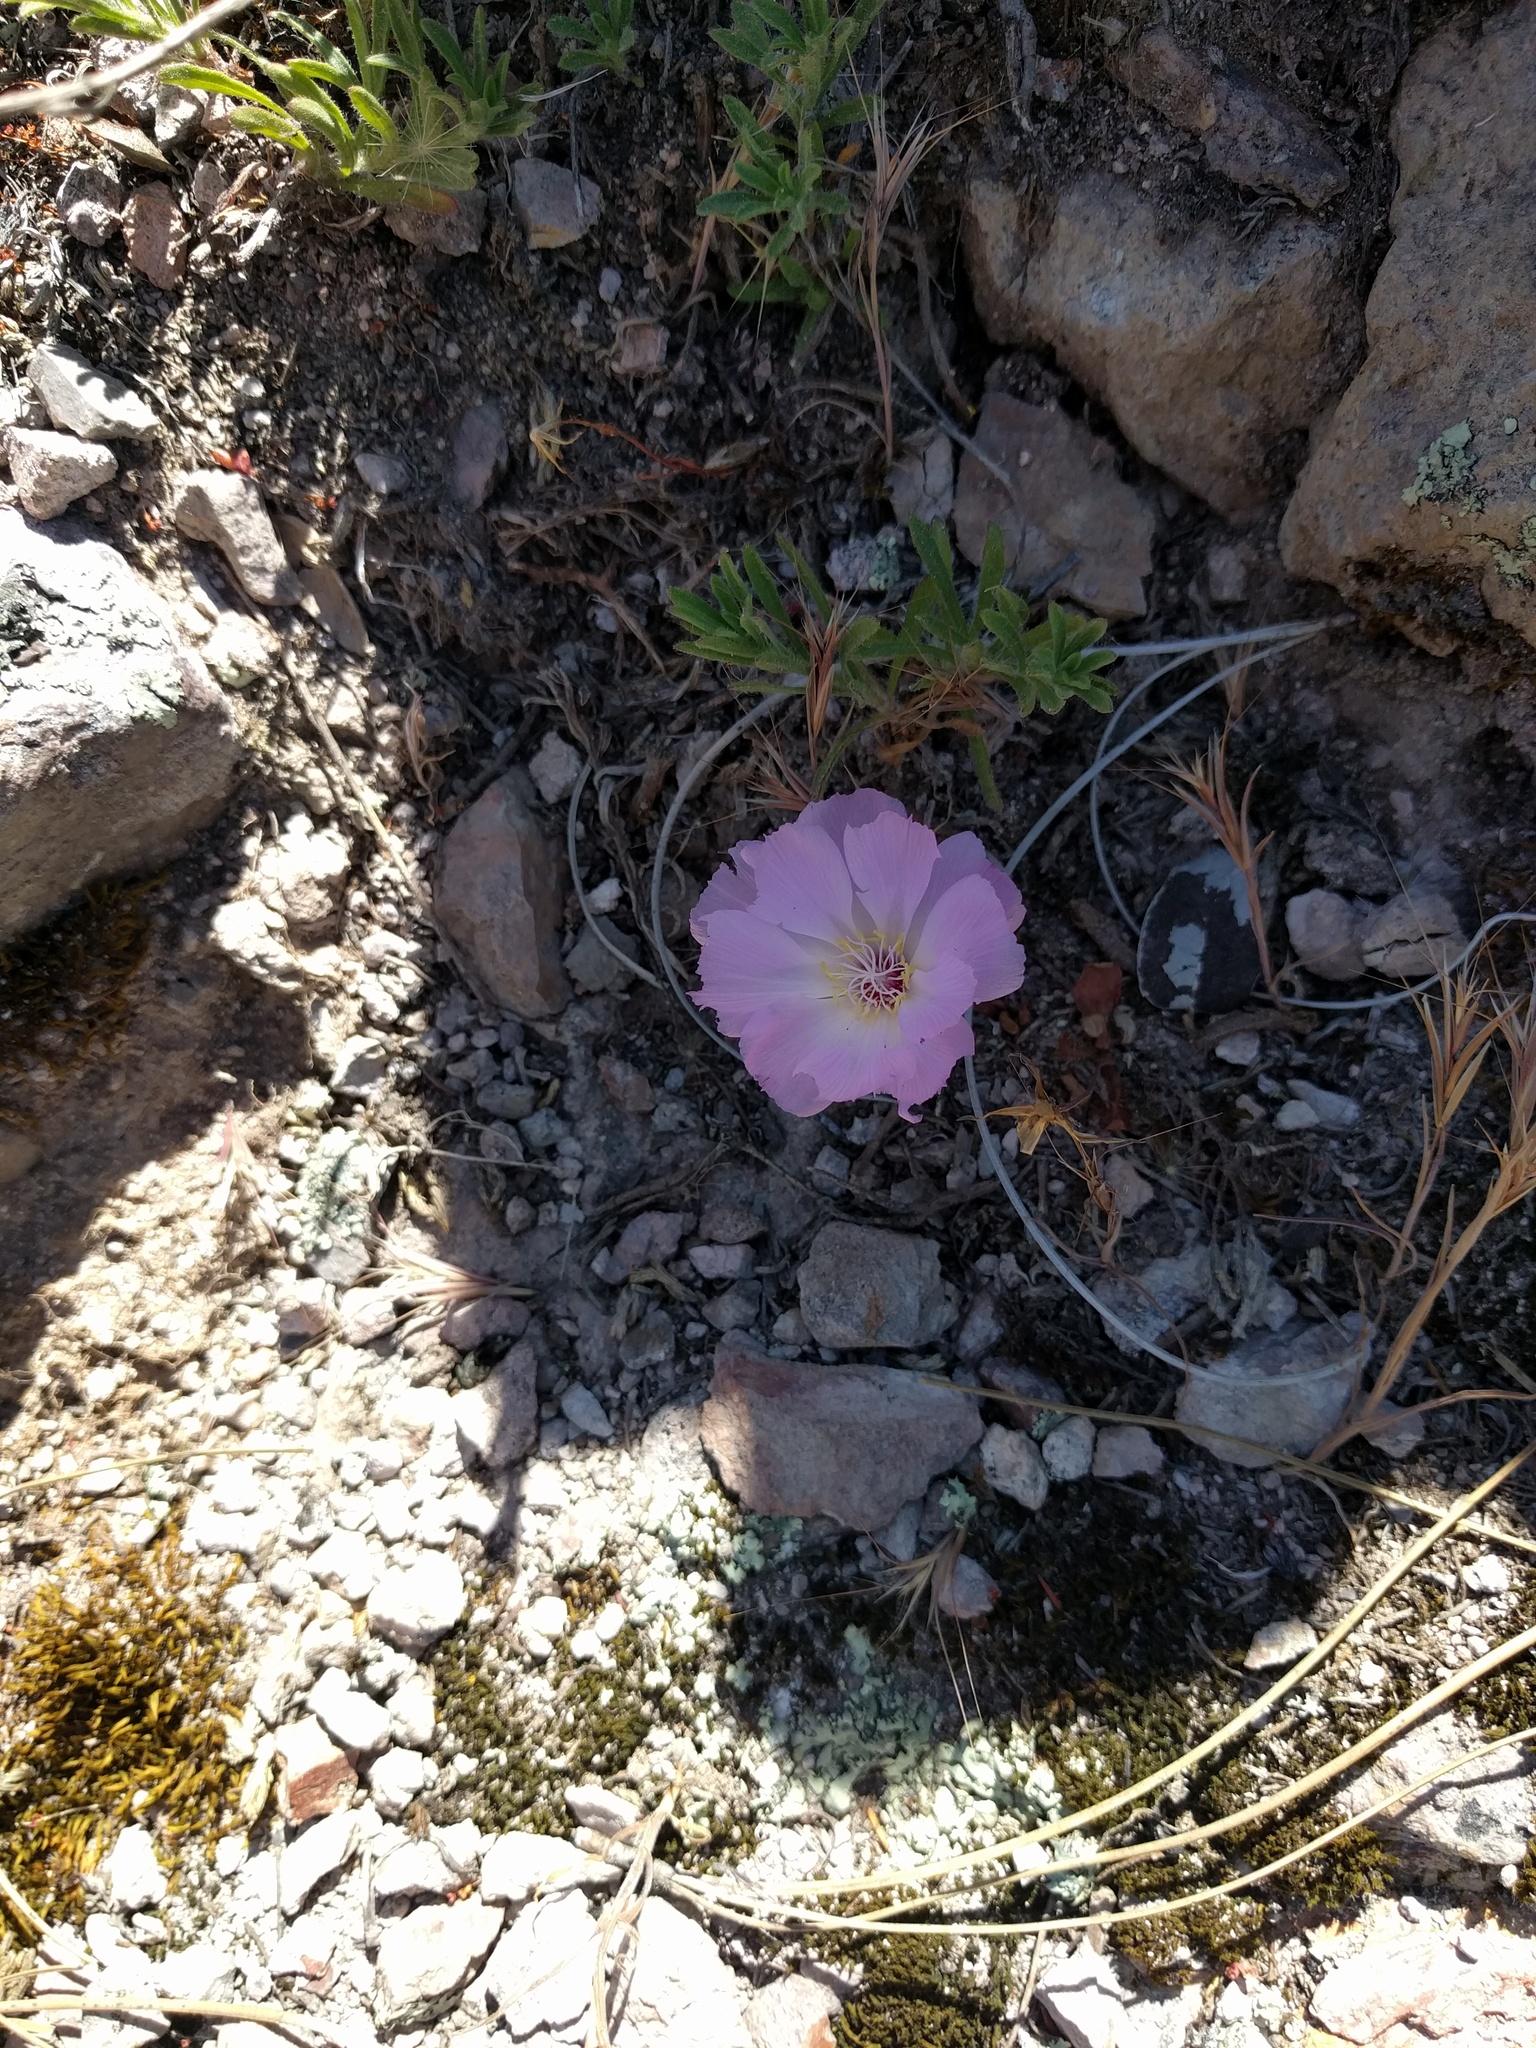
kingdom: Plantae
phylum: Tracheophyta
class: Magnoliopsida
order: Caryophyllales
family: Montiaceae
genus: Lewisia
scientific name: Lewisia rediviva
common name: Bitter-root
